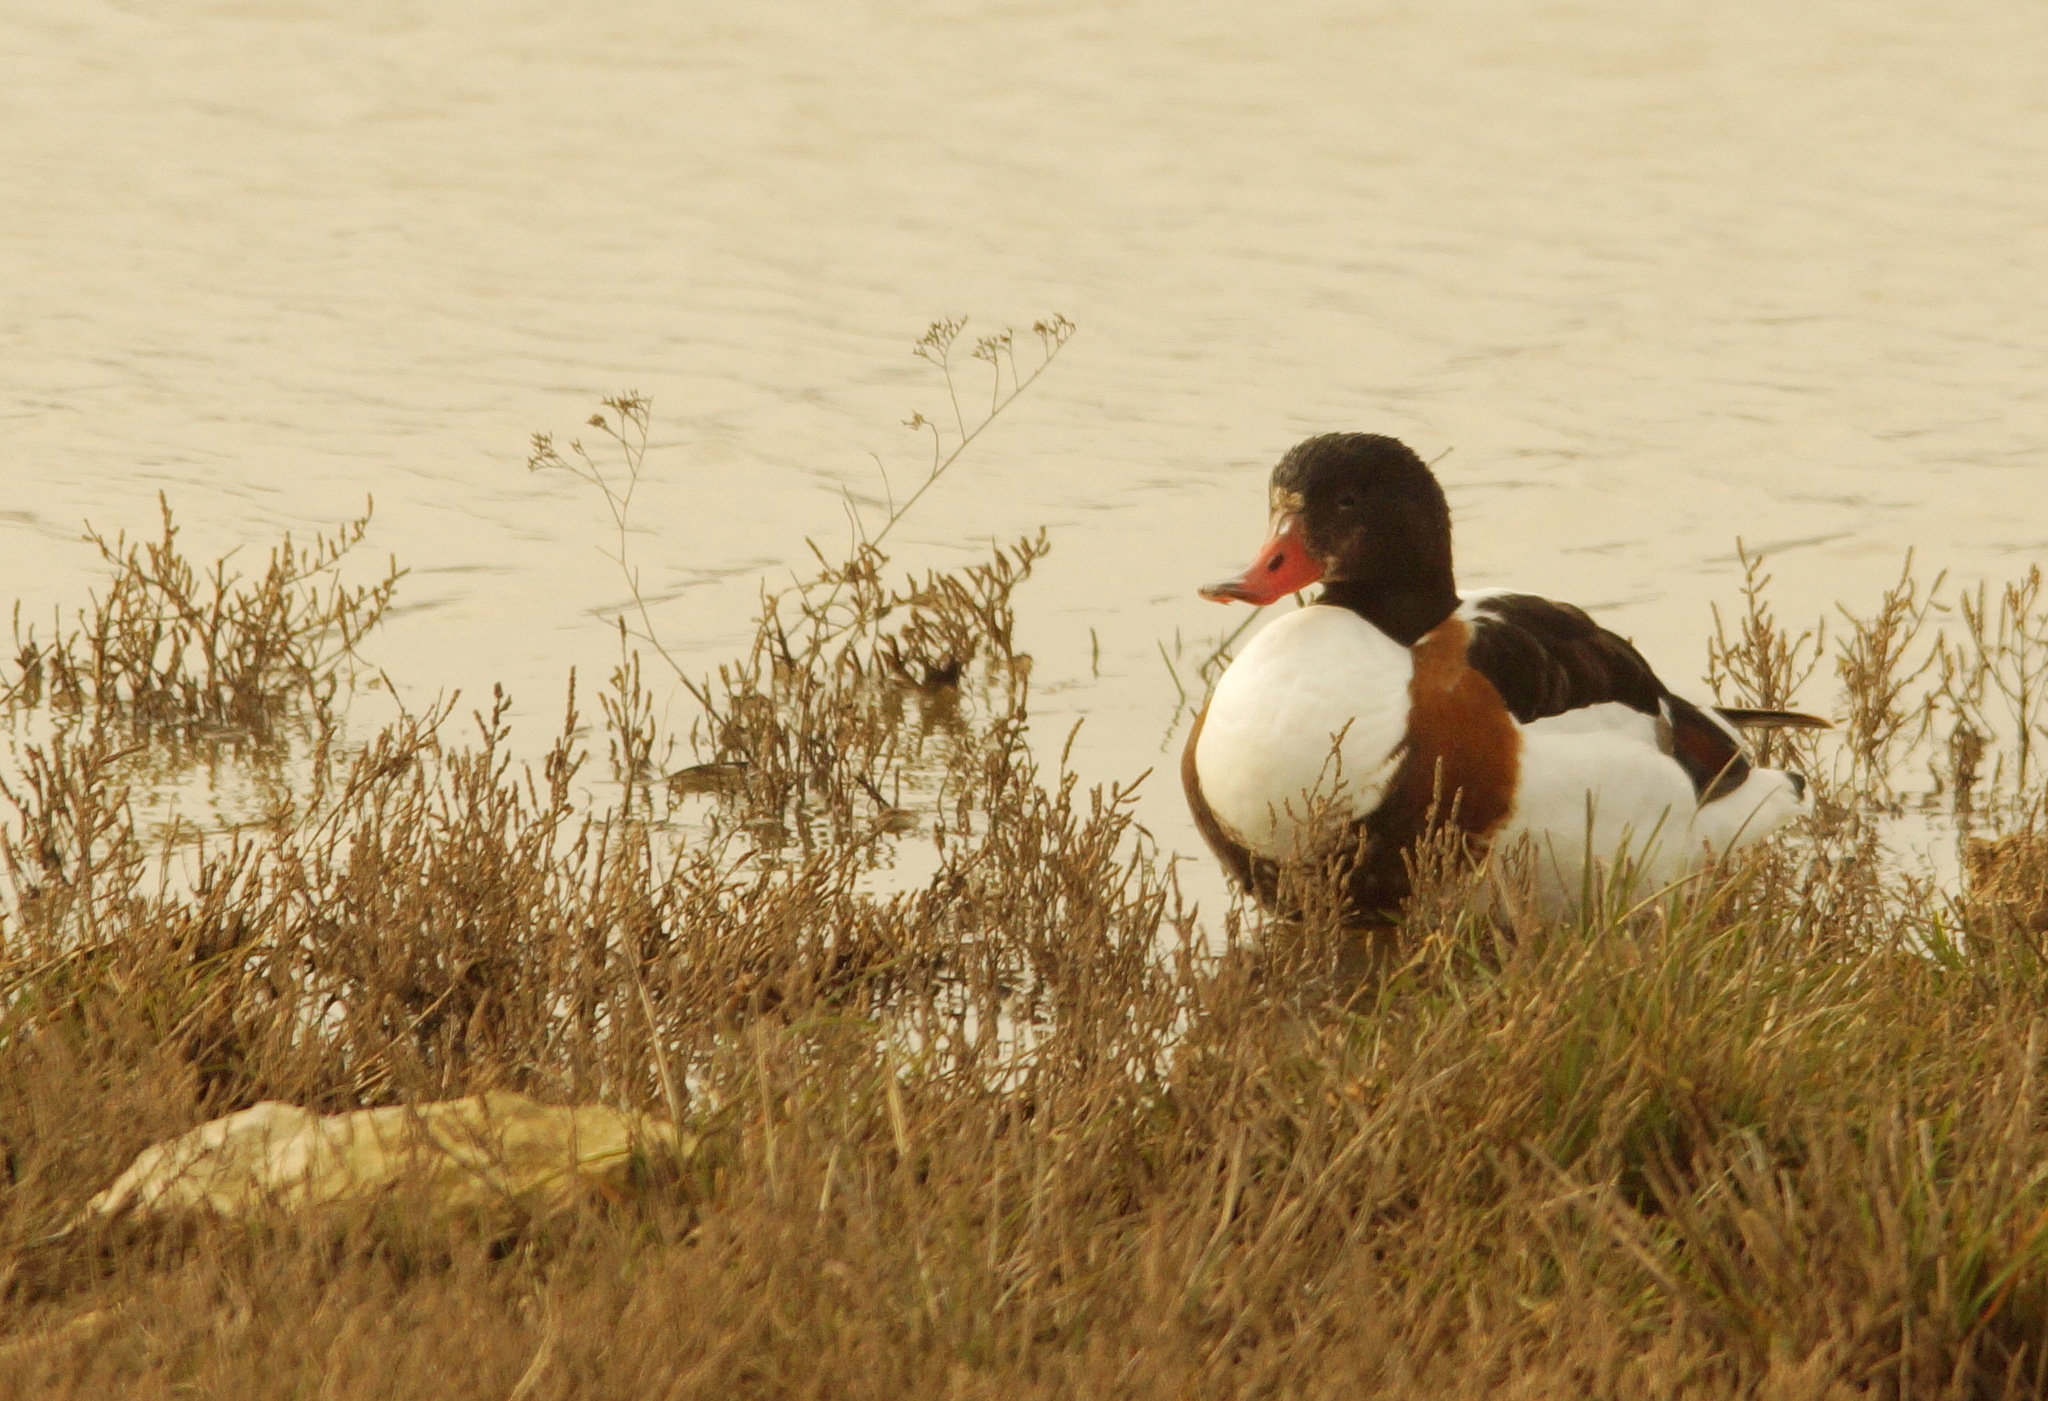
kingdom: Animalia
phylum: Chordata
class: Aves
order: Anseriformes
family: Anatidae
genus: Tadorna
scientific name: Tadorna tadorna
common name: Common shelduck
